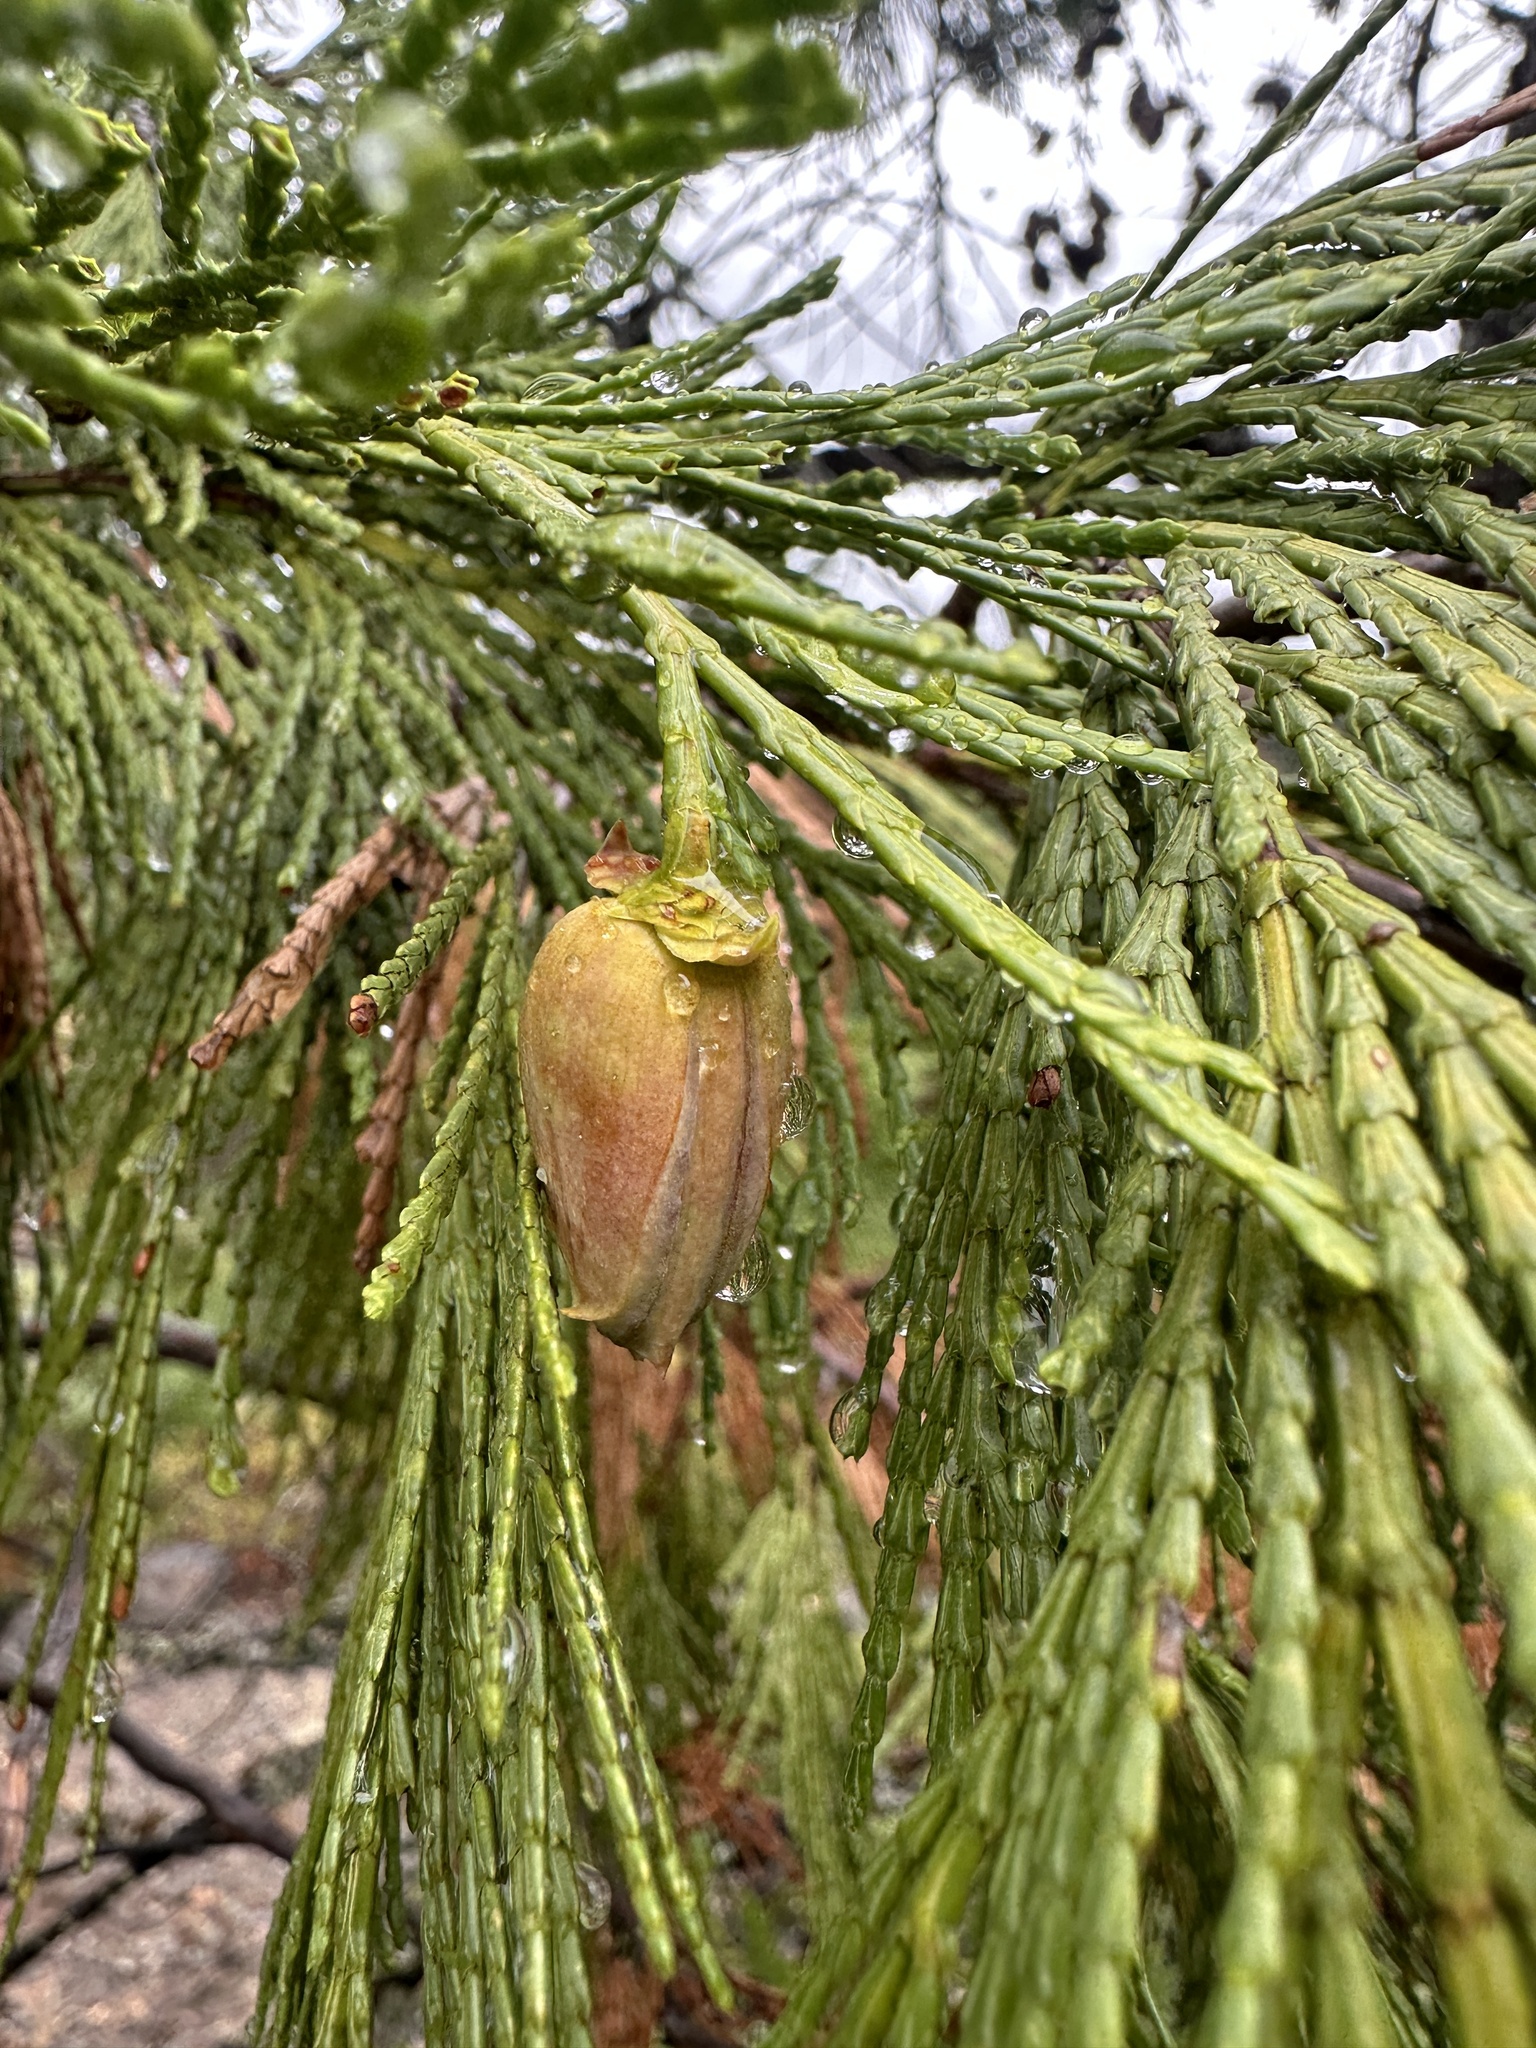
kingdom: Plantae
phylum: Tracheophyta
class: Pinopsida
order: Pinales
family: Cupressaceae
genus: Calocedrus
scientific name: Calocedrus decurrens
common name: Californian incense-cedar
